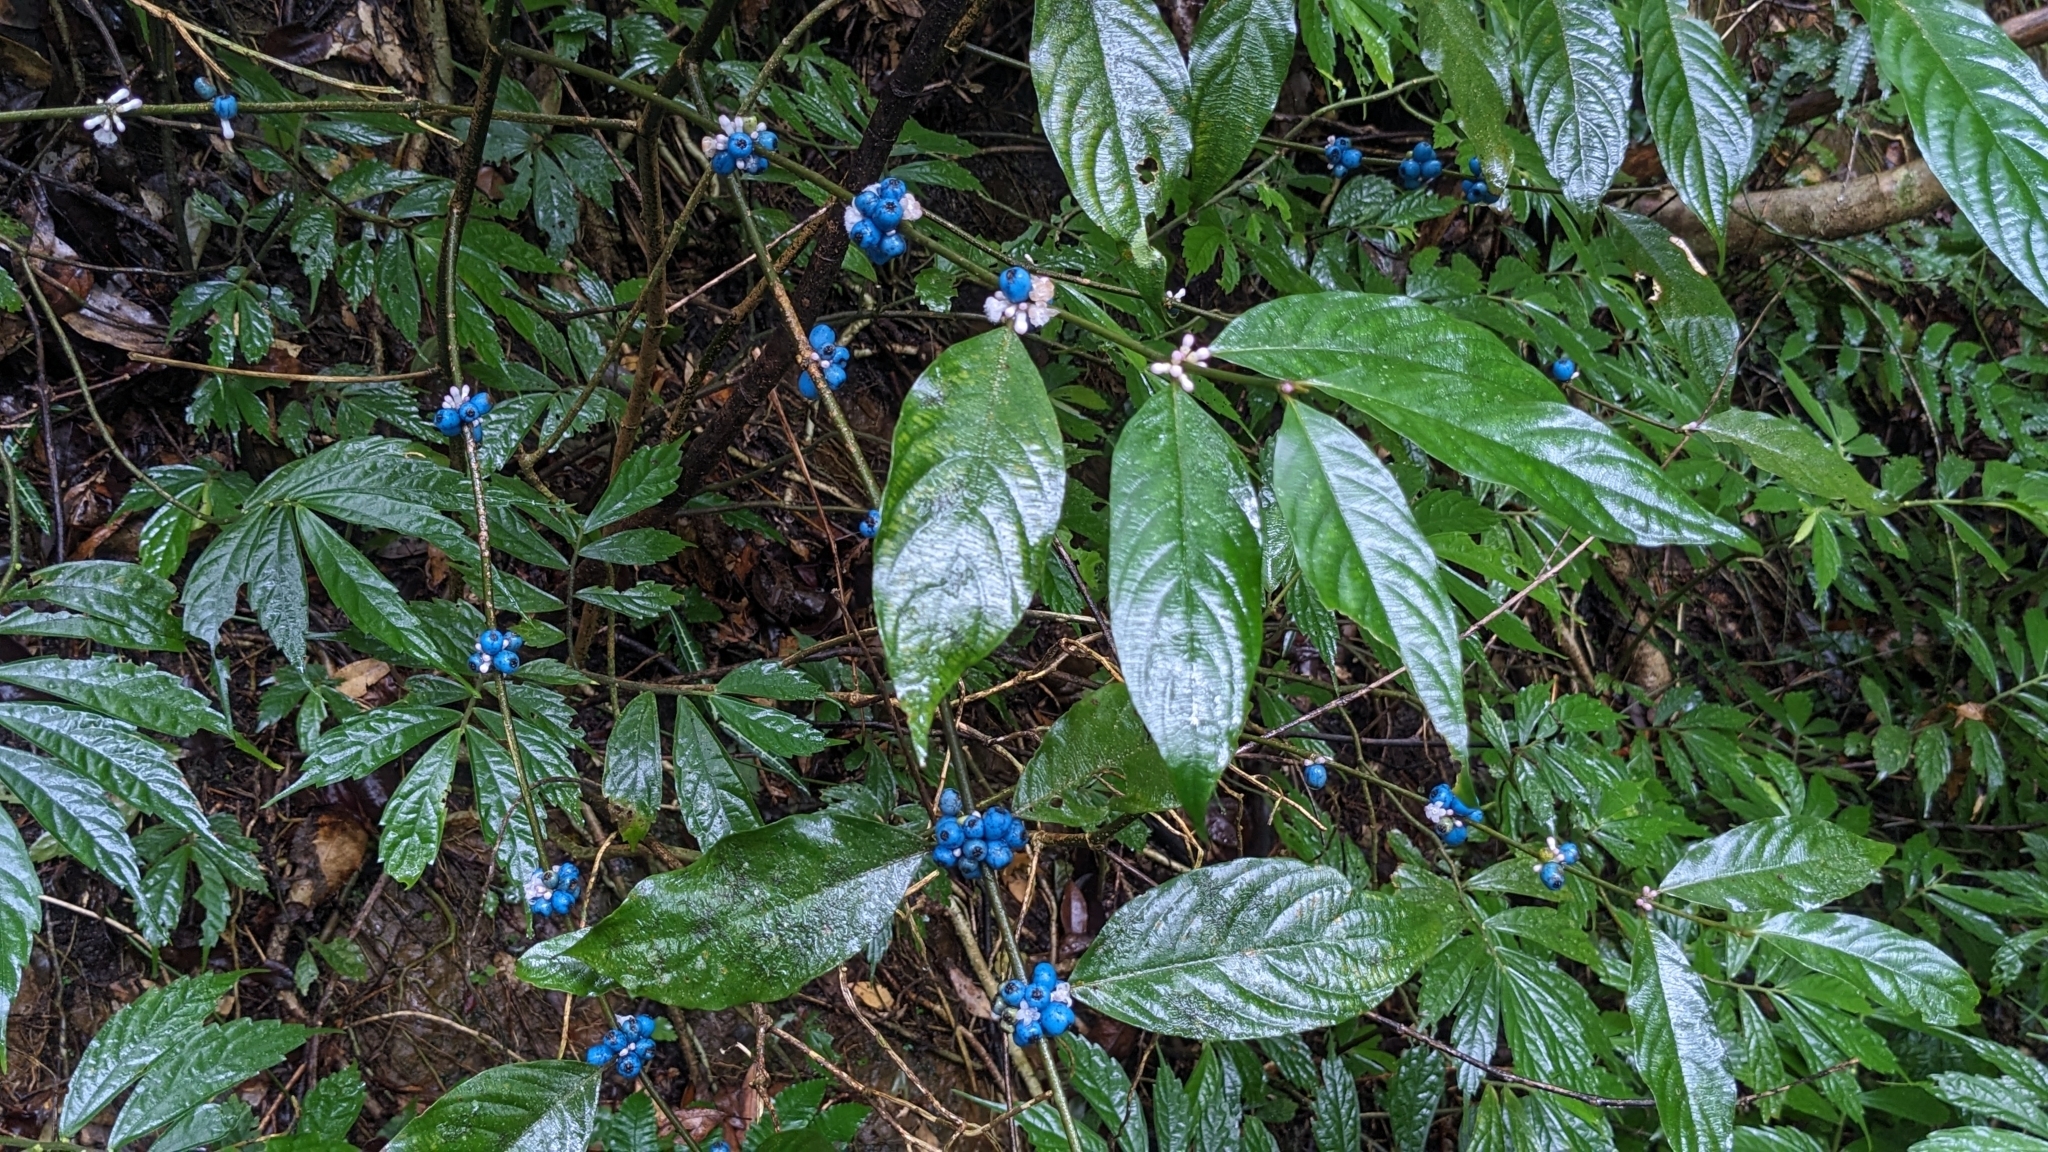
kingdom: Plantae
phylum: Tracheophyta
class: Magnoliopsida
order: Gentianales
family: Rubiaceae
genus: Lasianthus
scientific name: Lasianthus fordii
